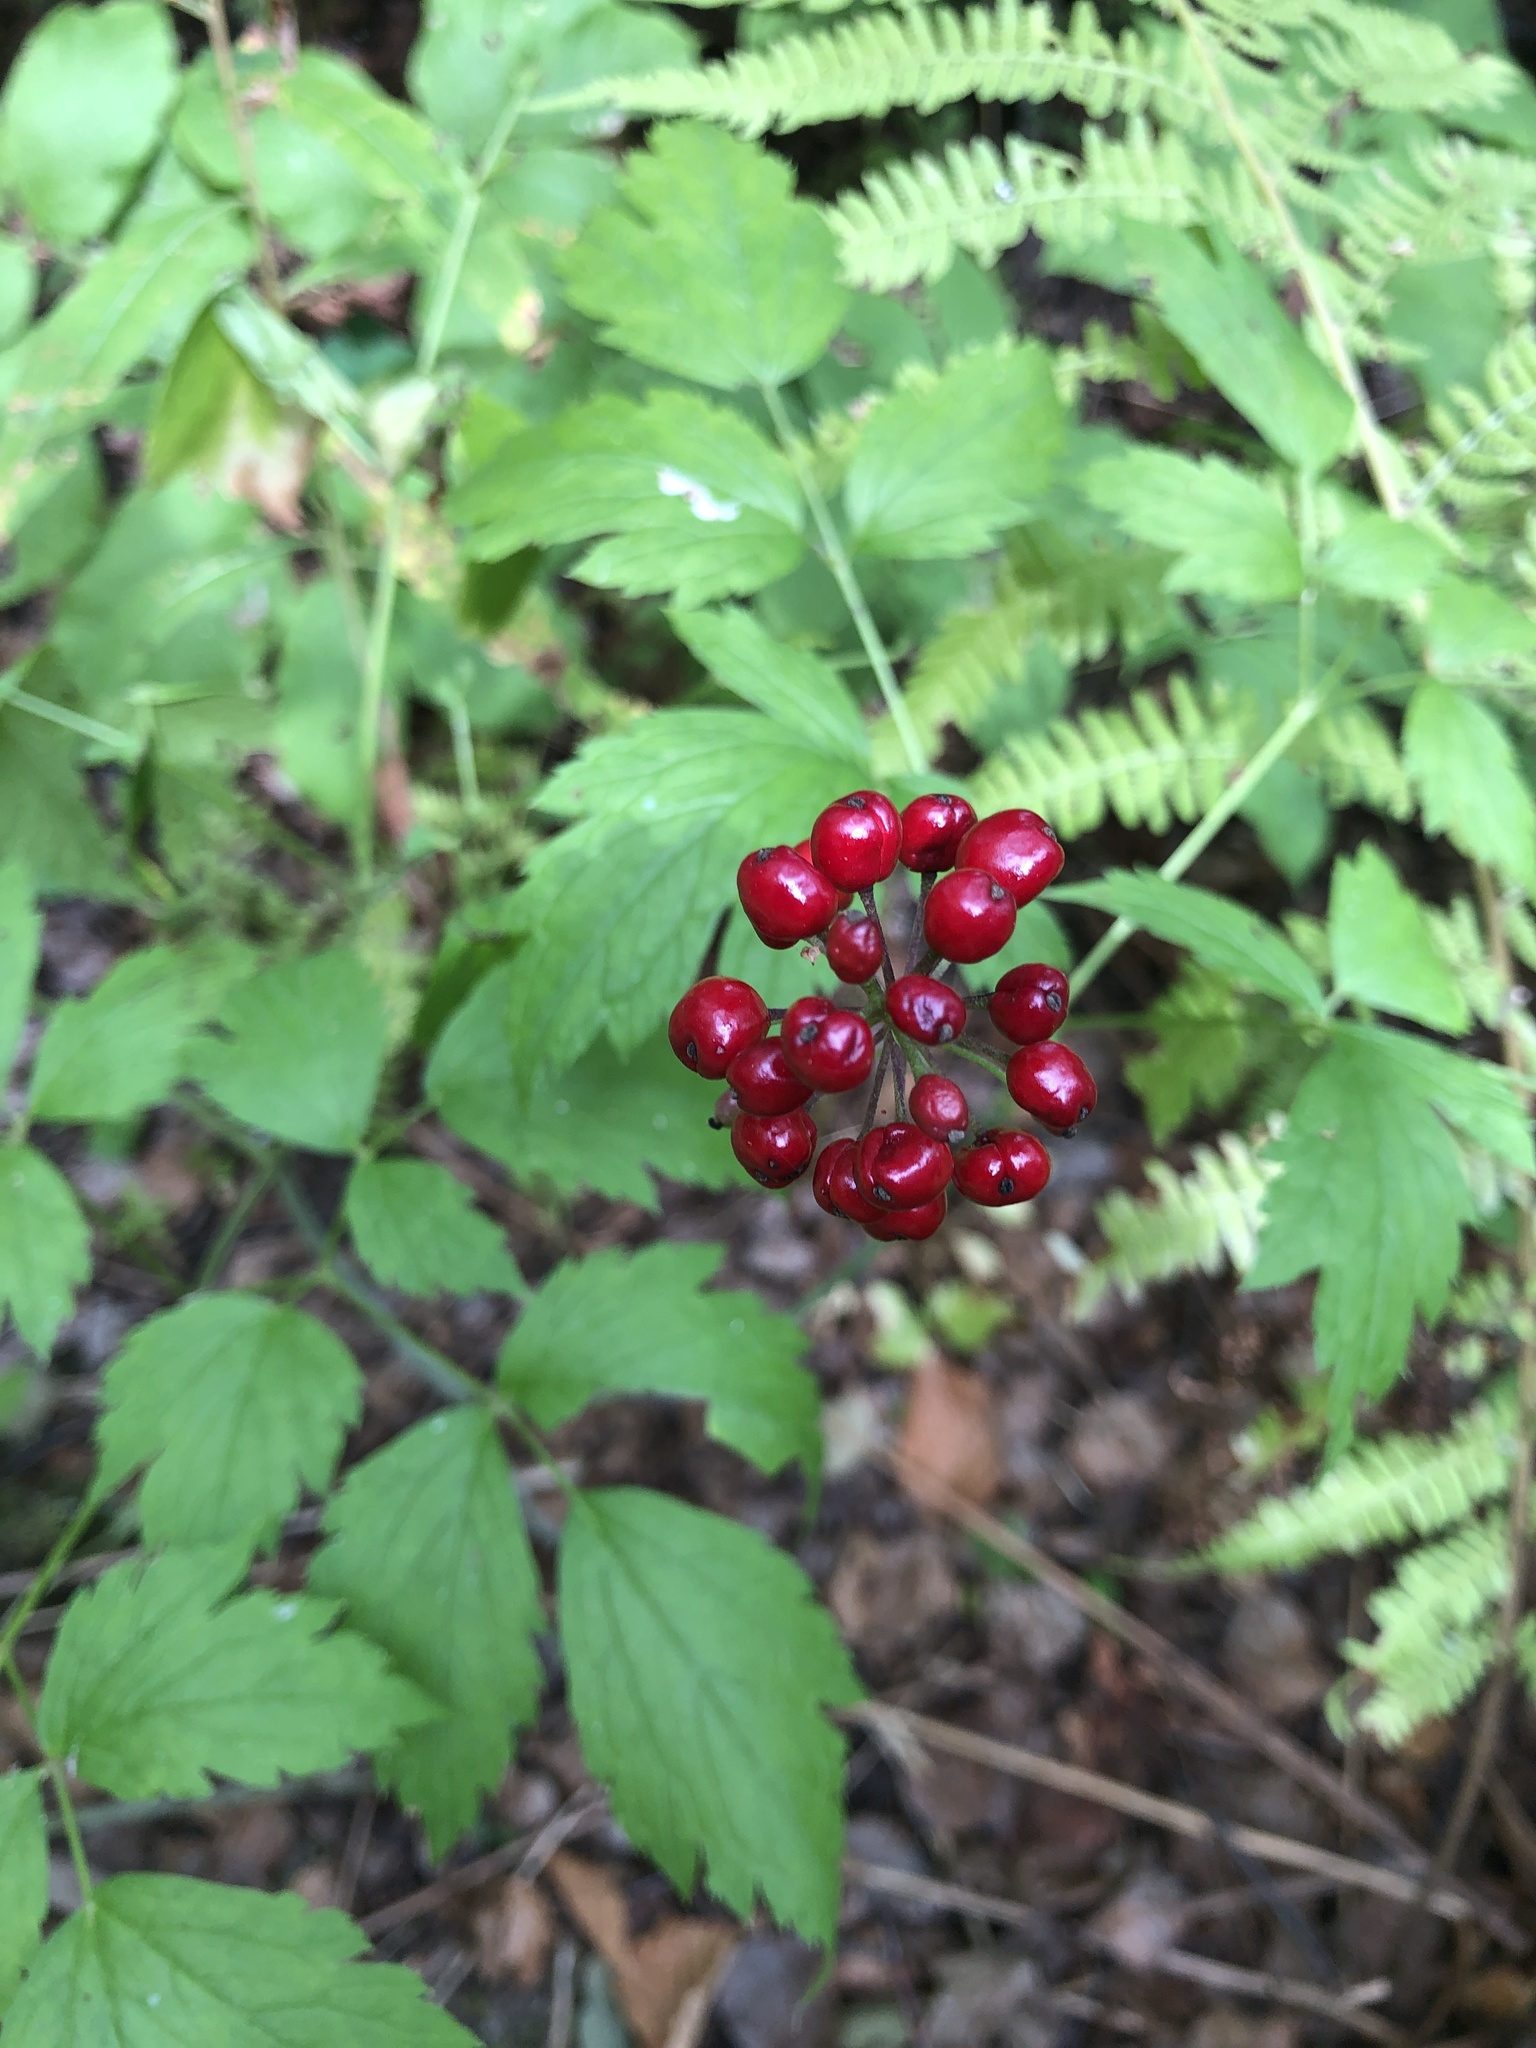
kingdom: Plantae
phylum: Tracheophyta
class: Magnoliopsida
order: Ranunculales
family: Ranunculaceae
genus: Actaea
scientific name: Actaea rubra
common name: Red baneberry
